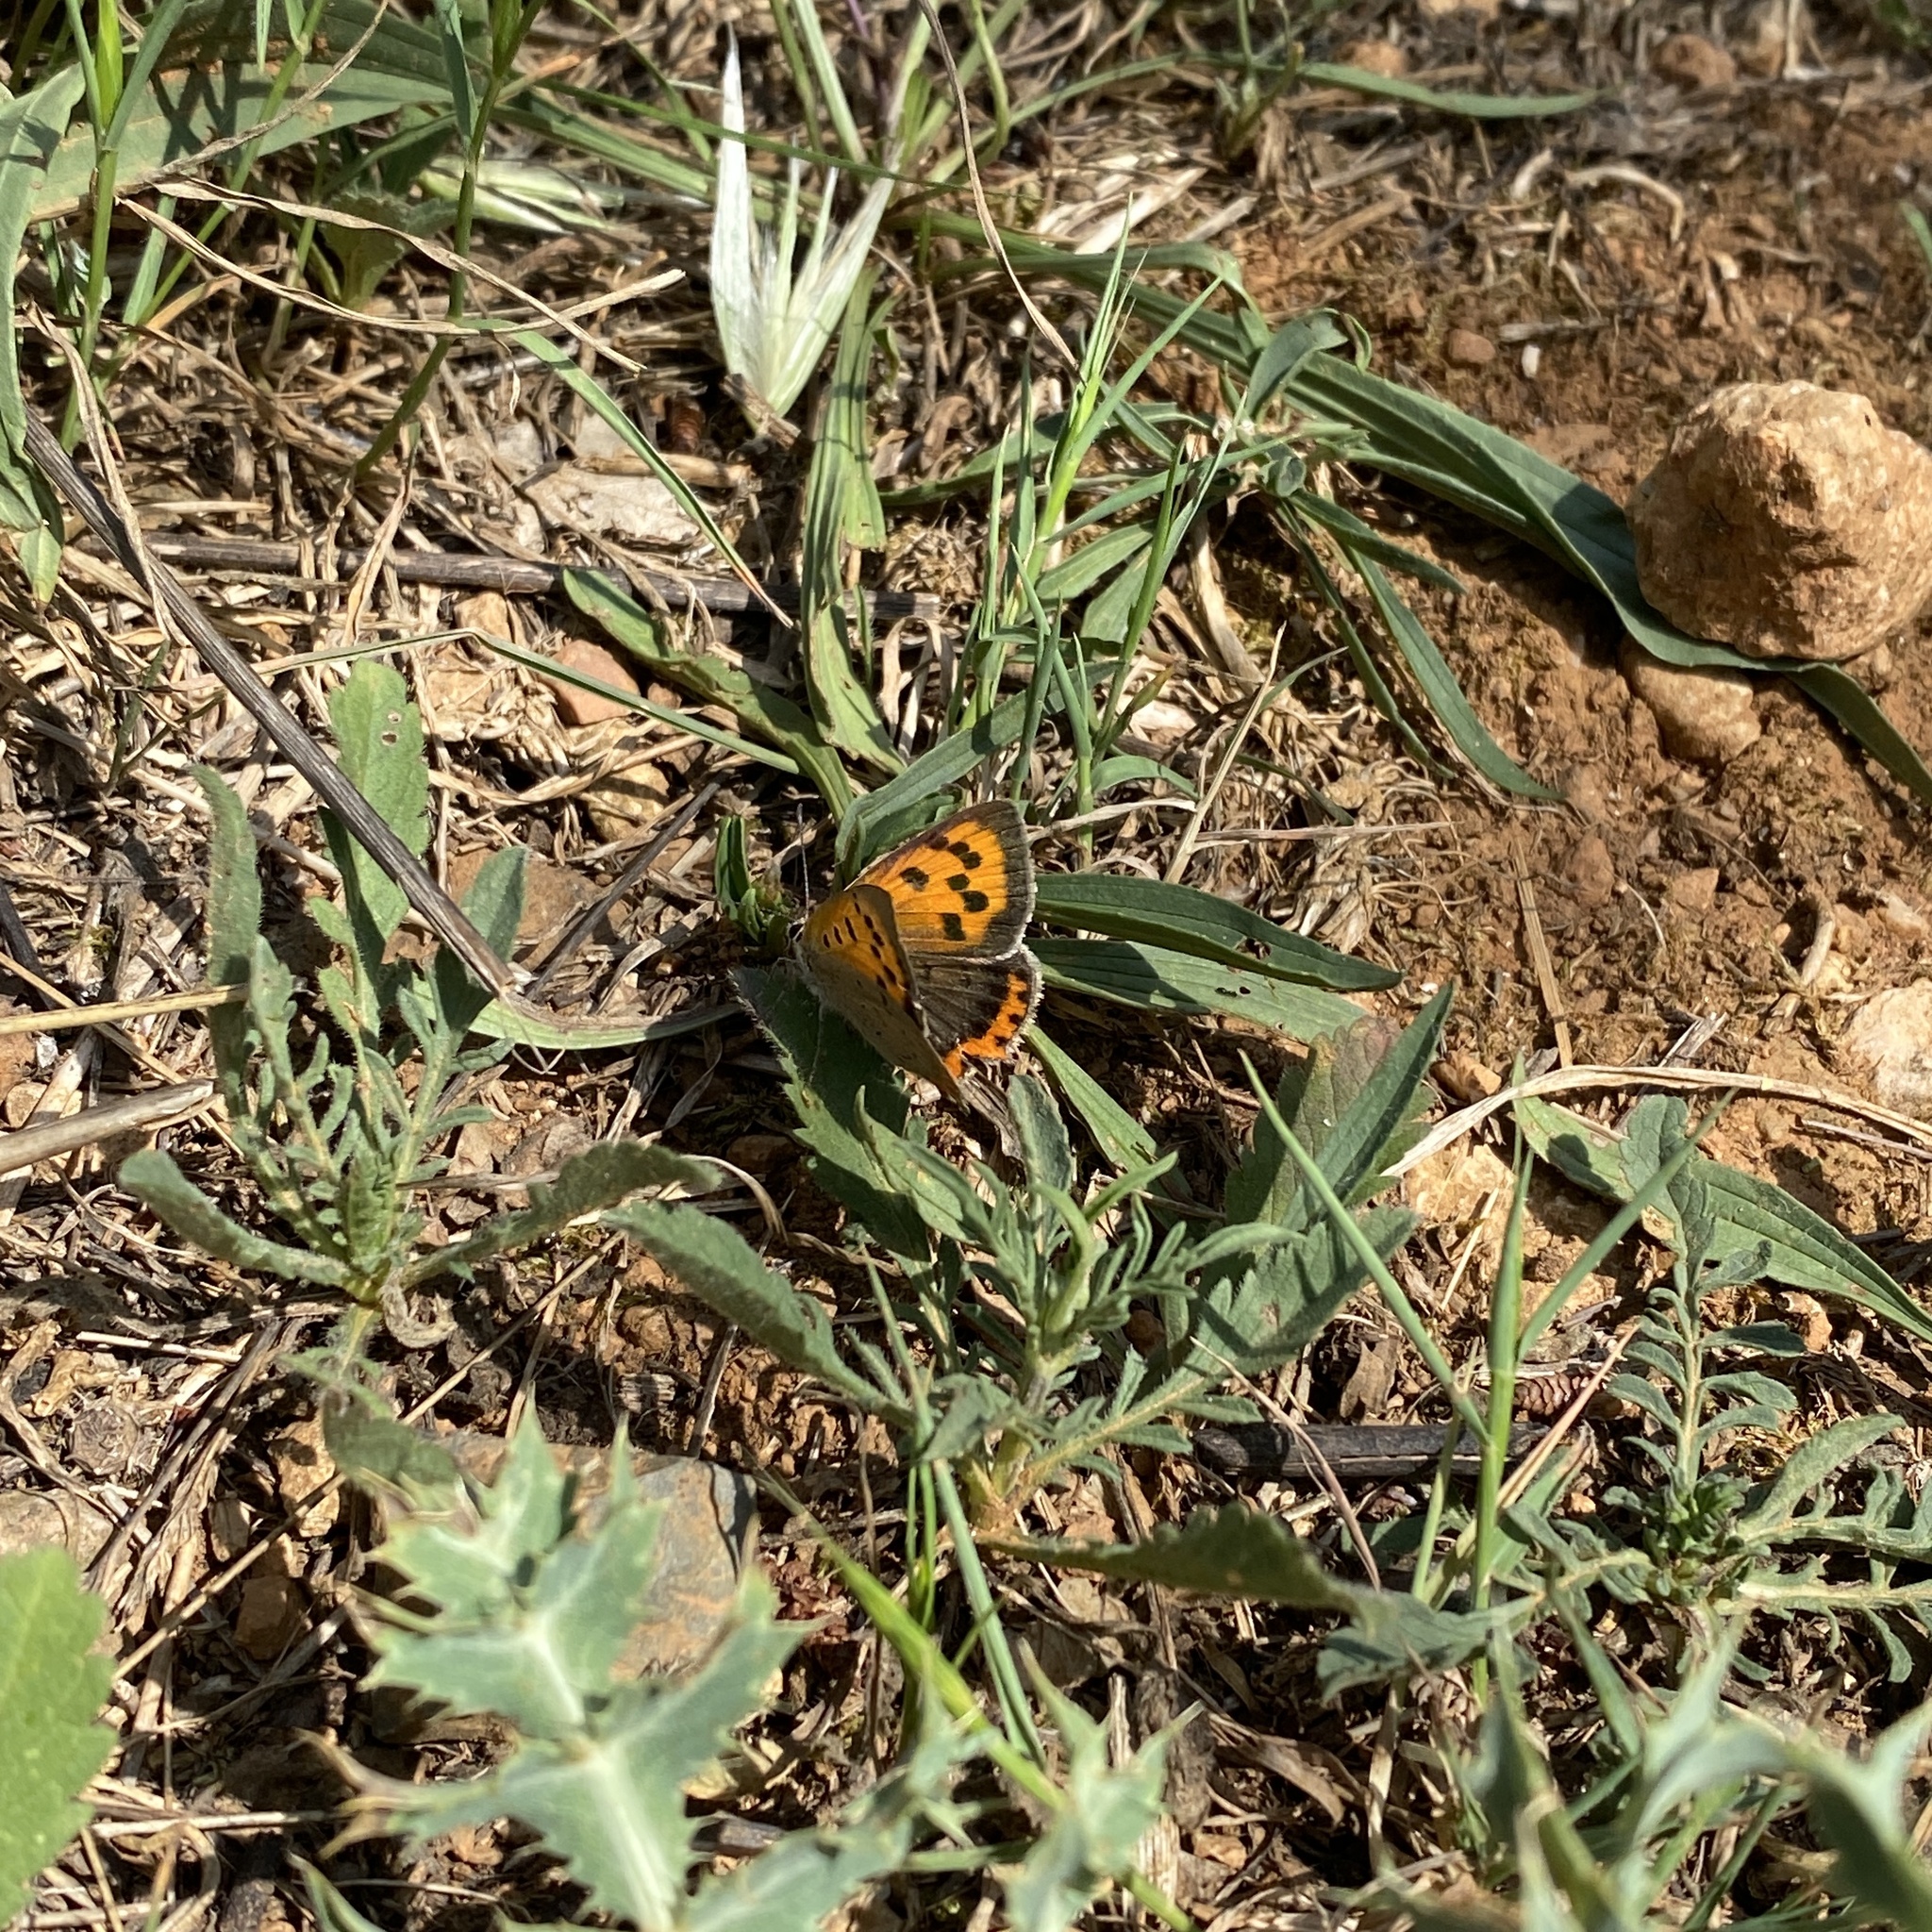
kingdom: Animalia
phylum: Arthropoda
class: Insecta
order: Lepidoptera
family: Lycaenidae
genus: Lycaena
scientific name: Lycaena phlaeas
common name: Small copper
